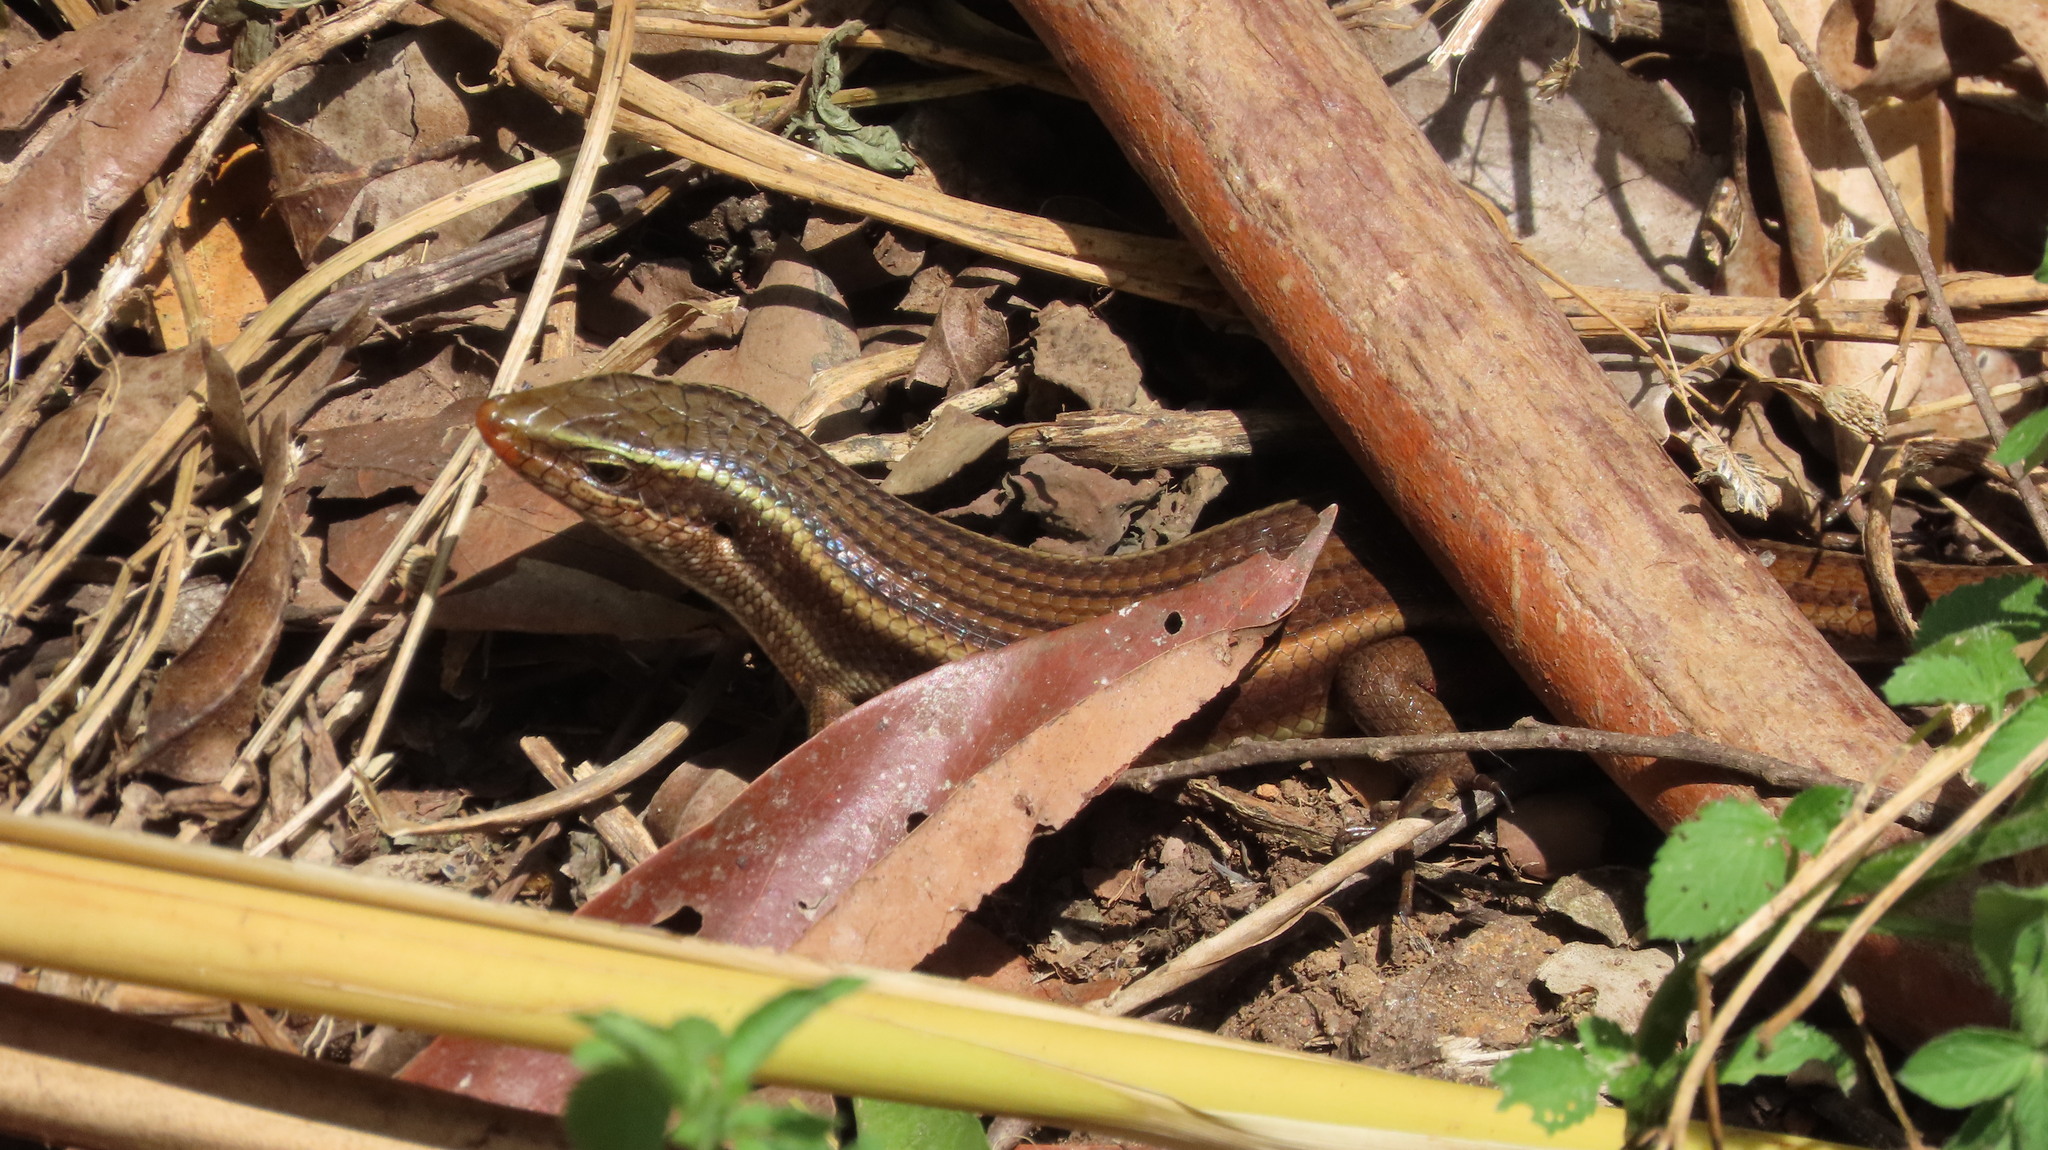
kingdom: Animalia
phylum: Chordata
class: Squamata
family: Scincidae
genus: Eutropis
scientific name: Eutropis carinata
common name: Keeled indian mabuya
